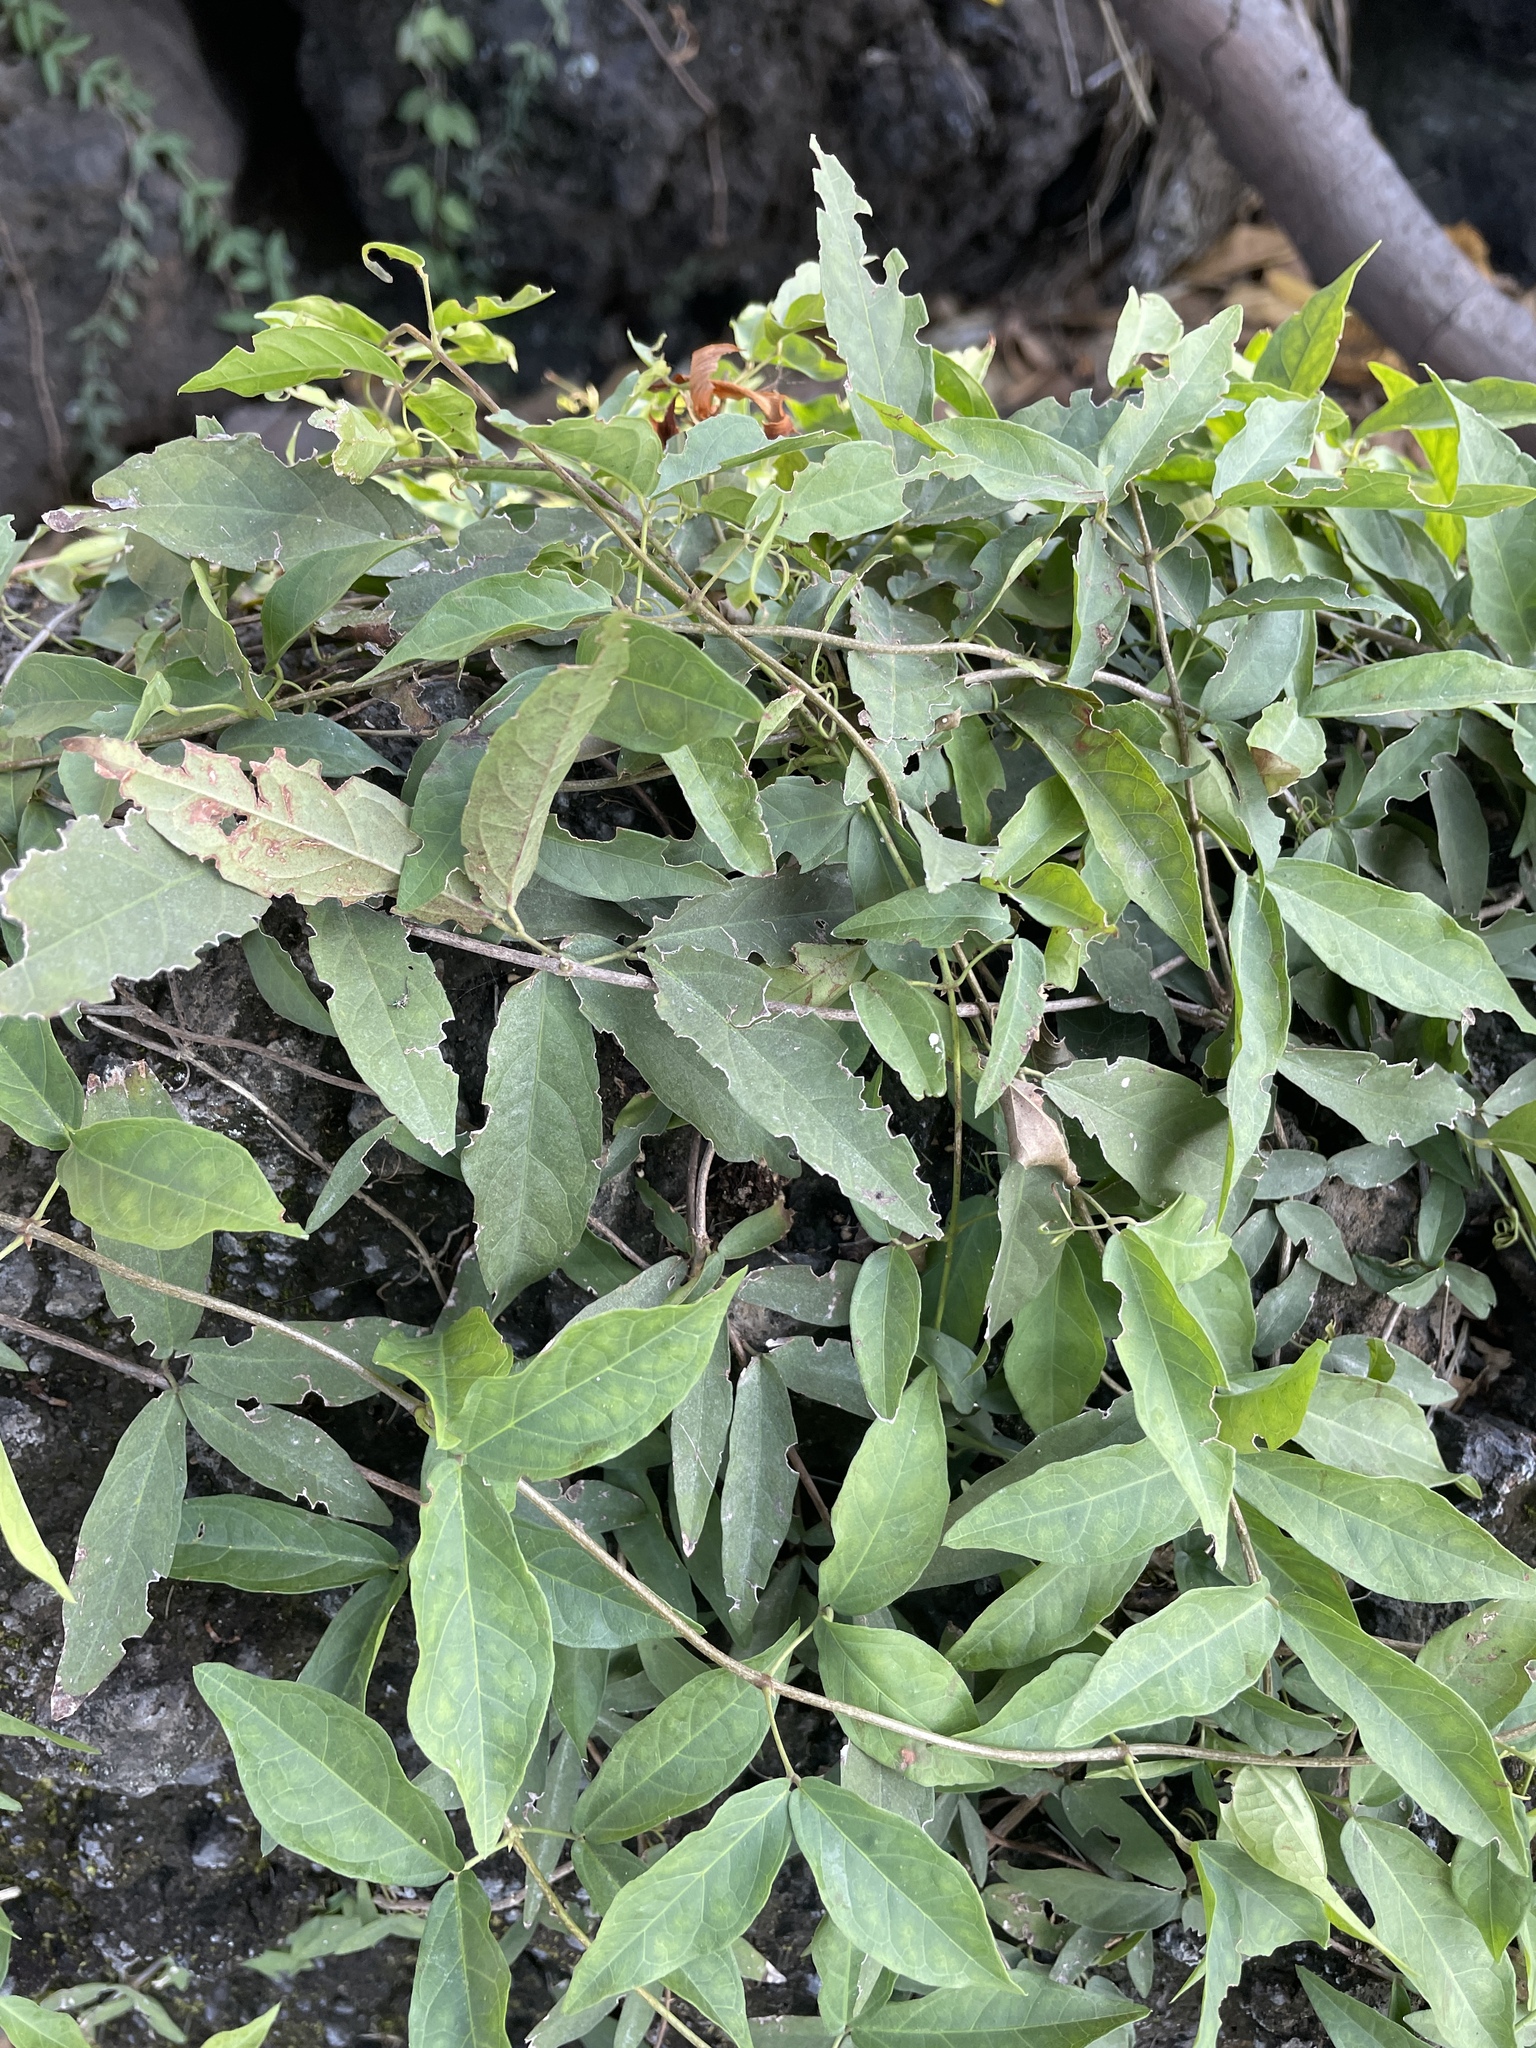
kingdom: Plantae
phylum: Tracheophyta
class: Magnoliopsida
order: Lamiales
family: Bignoniaceae
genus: Dolichandra
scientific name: Dolichandra unguis-cati
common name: Catclaw vine
